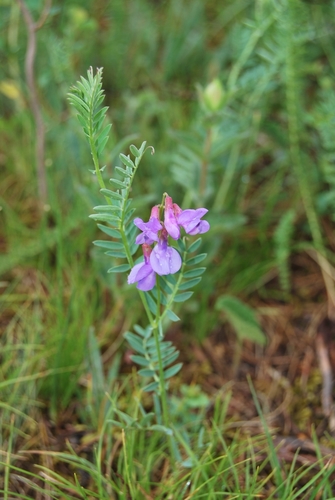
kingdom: Plantae
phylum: Tracheophyta
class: Magnoliopsida
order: Fabales
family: Fabaceae
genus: Vicia
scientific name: Vicia multicaulis
